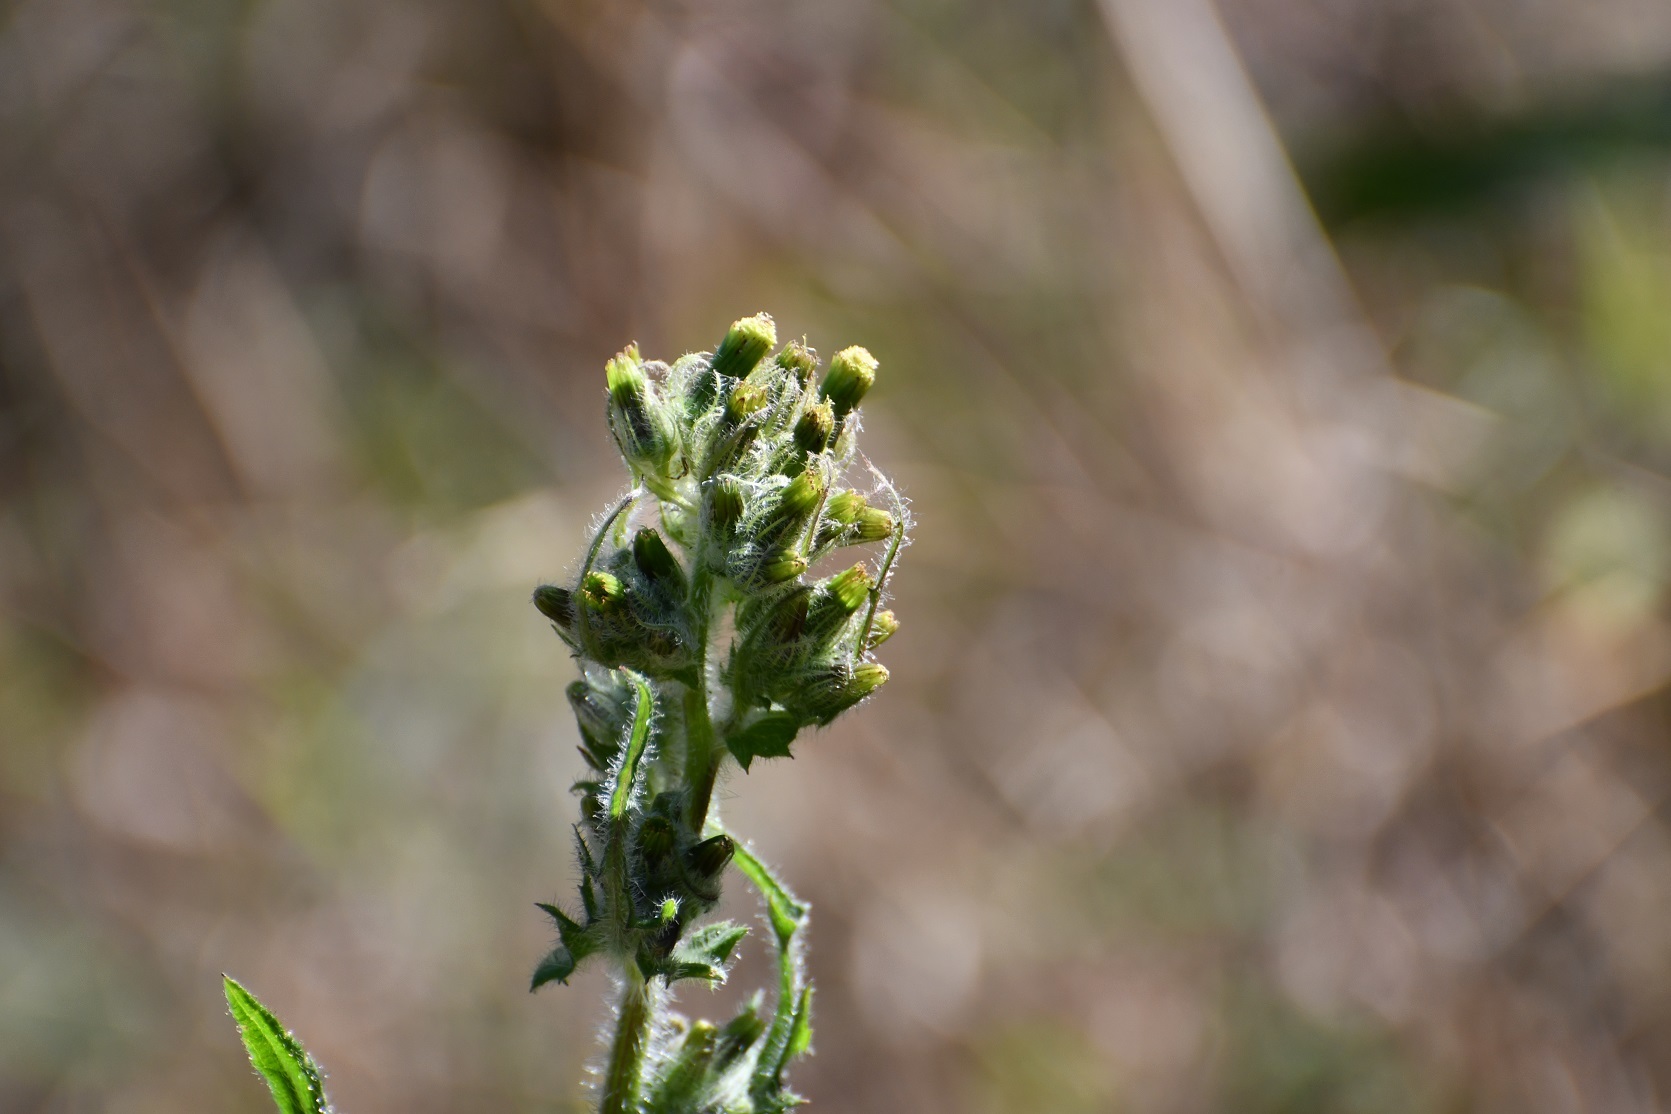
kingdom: Plantae
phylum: Tracheophyta
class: Magnoliopsida
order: Asterales
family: Asteraceae
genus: Erechtites
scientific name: Erechtites valerianifolius
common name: Tropical burnweed
